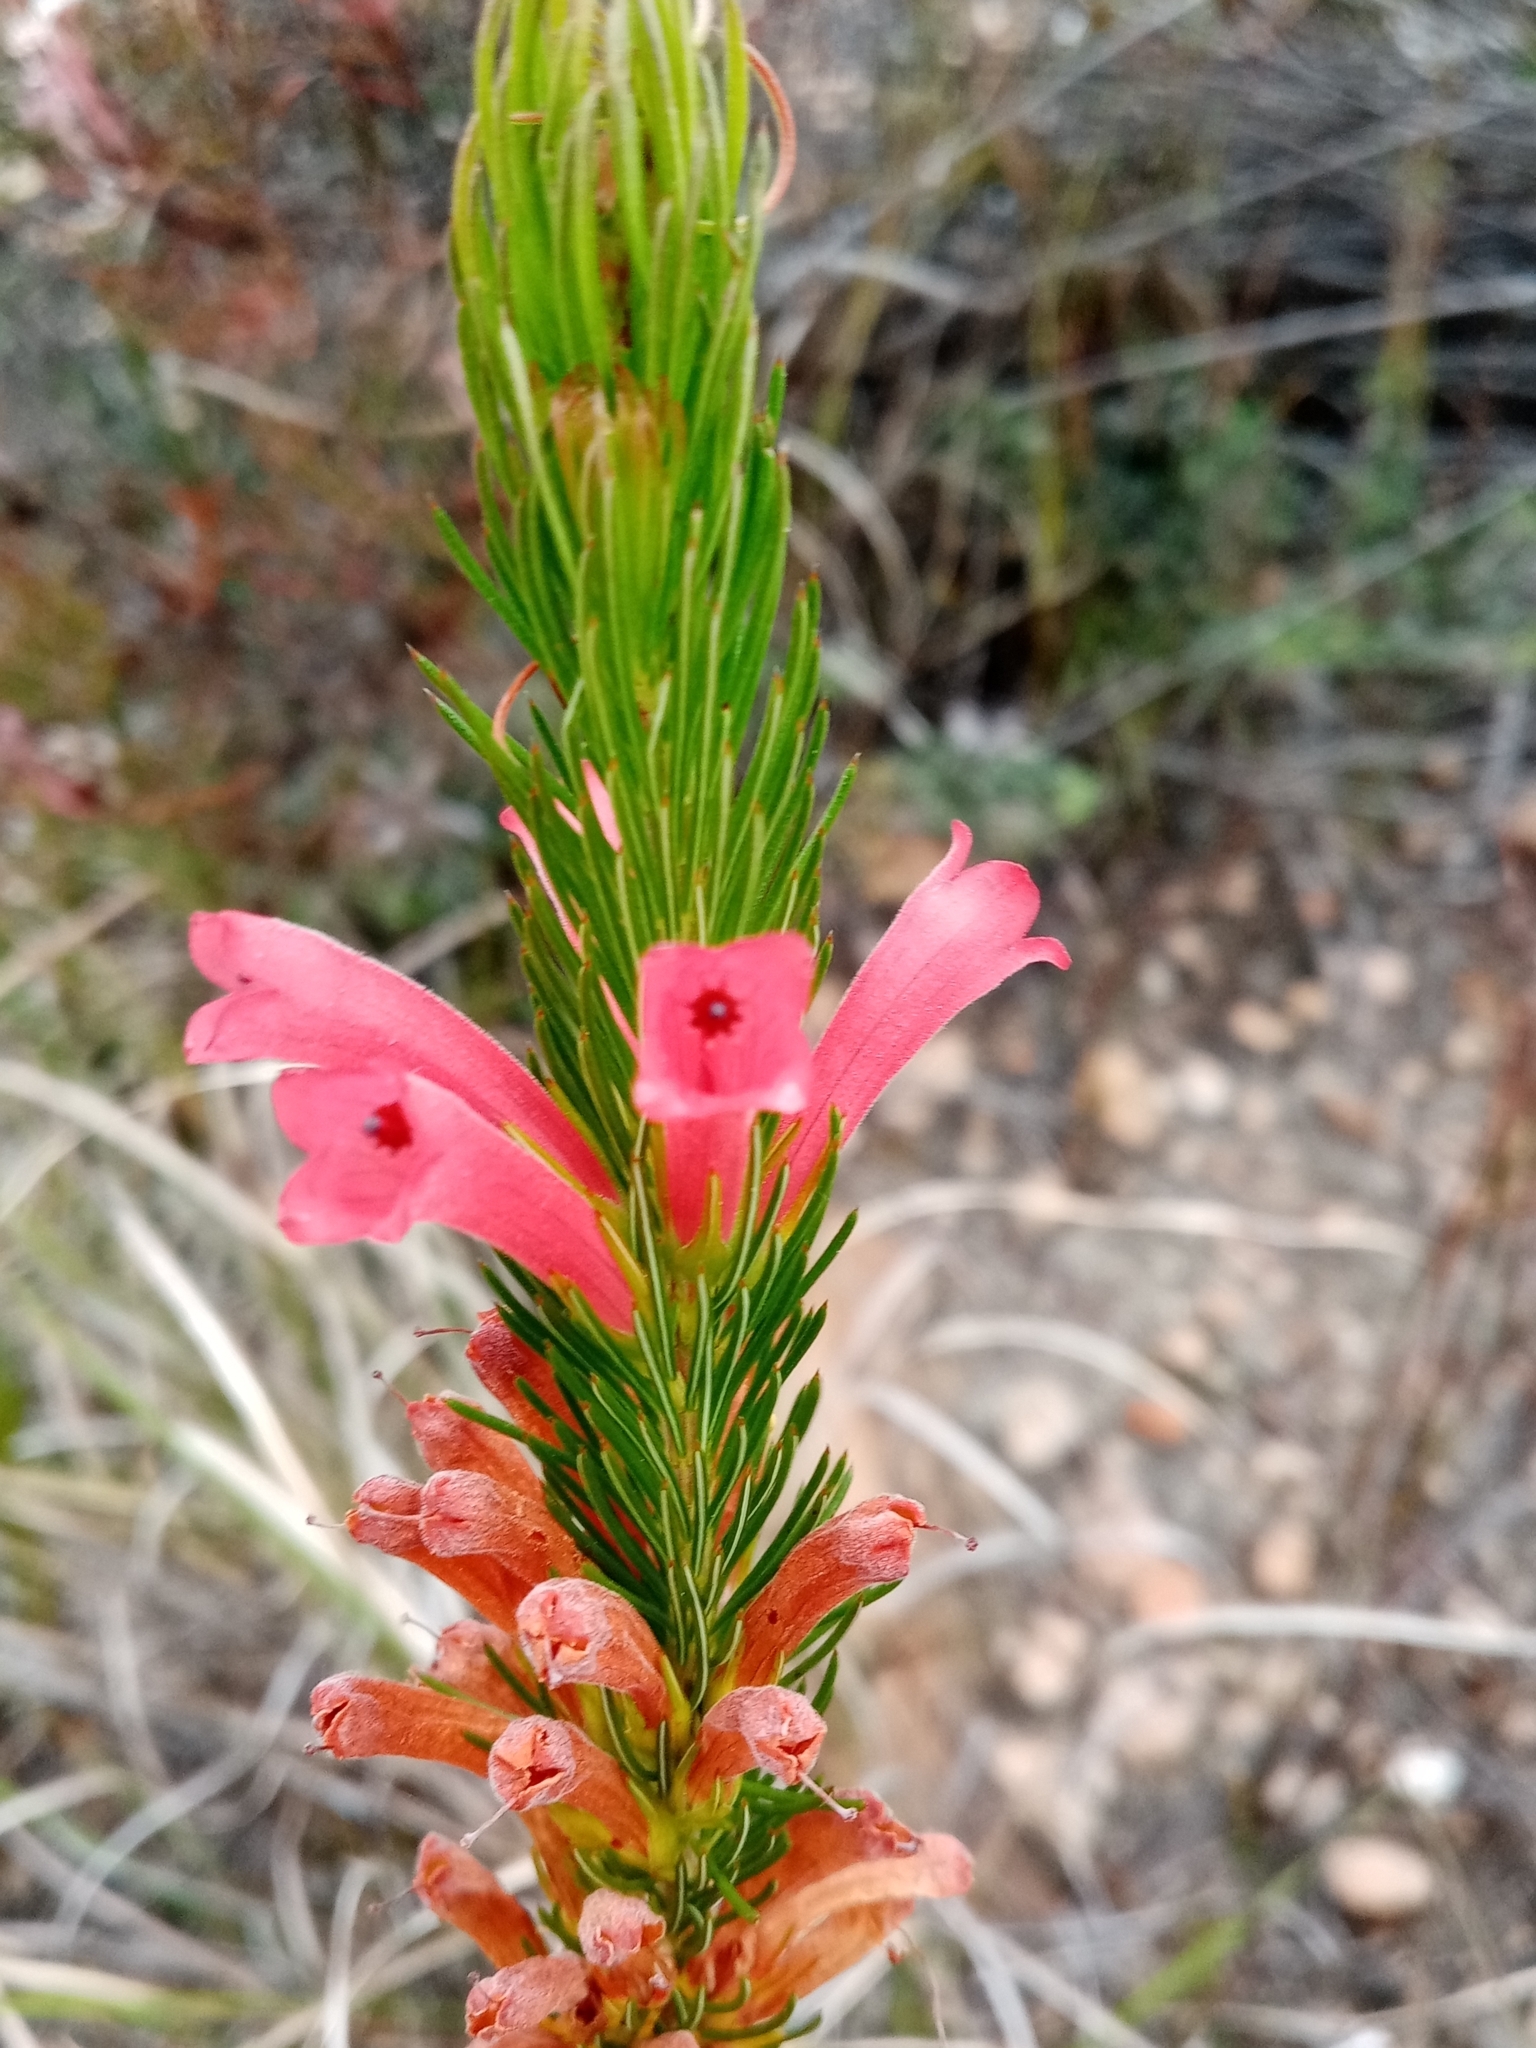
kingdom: Plantae
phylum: Tracheophyta
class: Magnoliopsida
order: Ericales
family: Ericaceae
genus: Erica
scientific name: Erica vestita
